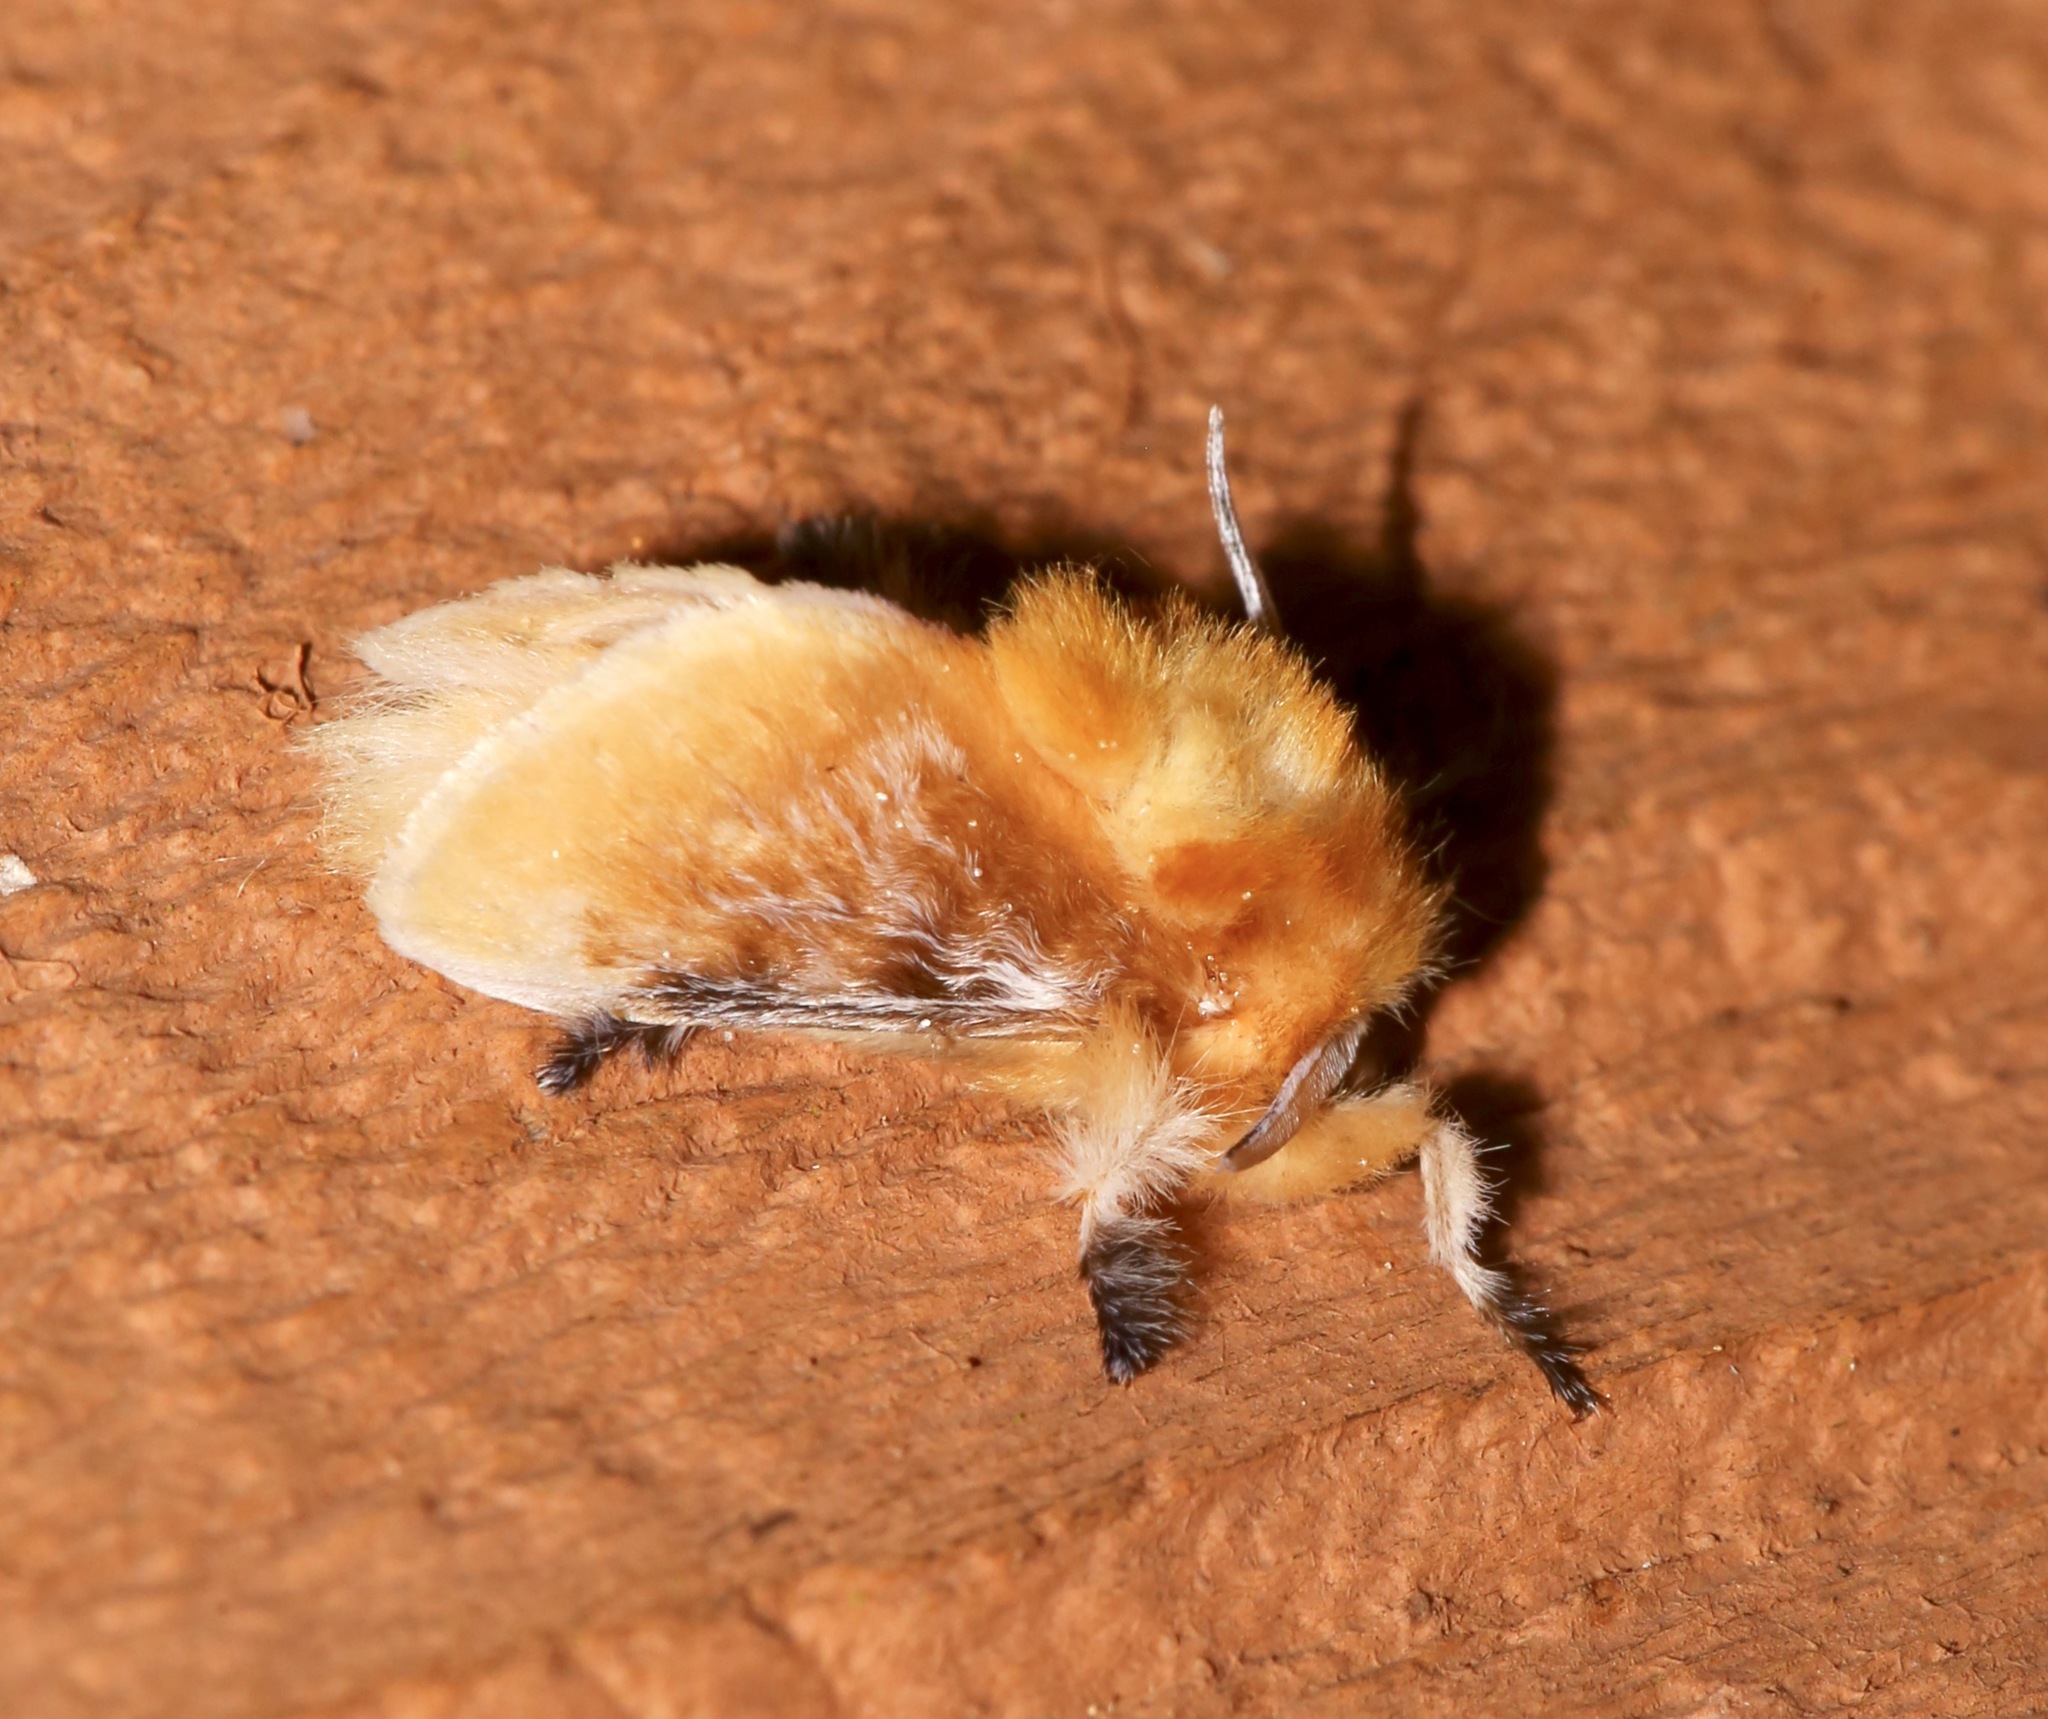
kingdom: Animalia
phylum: Arthropoda
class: Insecta
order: Lepidoptera
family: Megalopygidae
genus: Megalopyge
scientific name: Megalopyge opercularis
